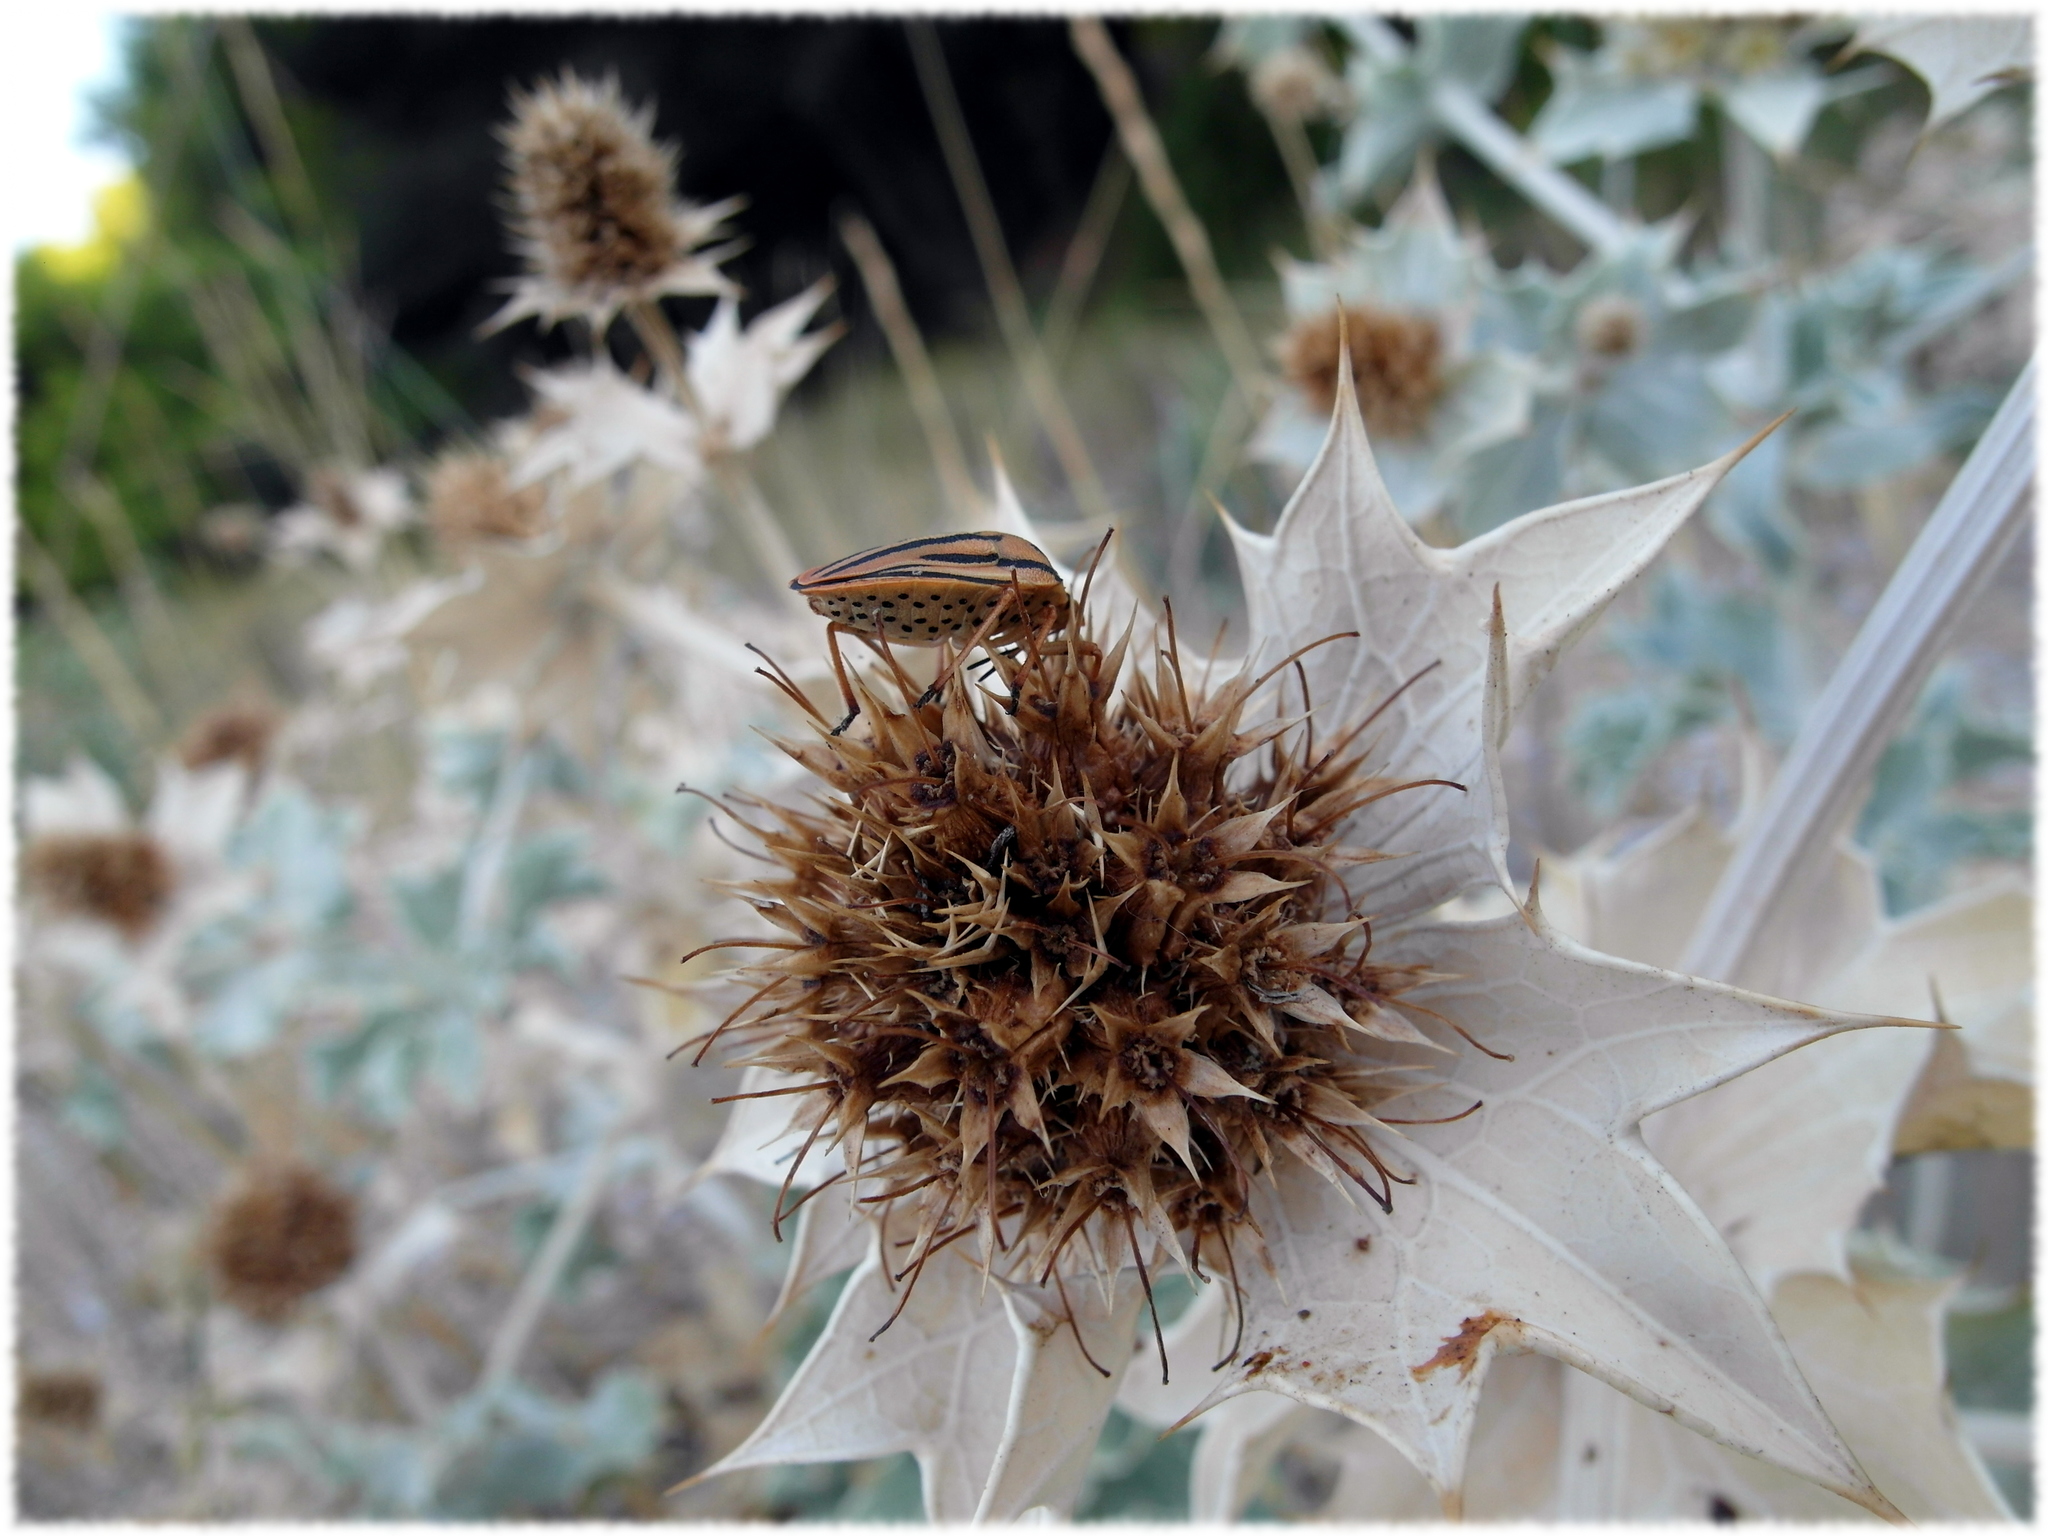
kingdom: Plantae
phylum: Tracheophyta
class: Magnoliopsida
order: Apiales
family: Apiaceae
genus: Eryngium
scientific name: Eryngium maritimum
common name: Sea-holly
